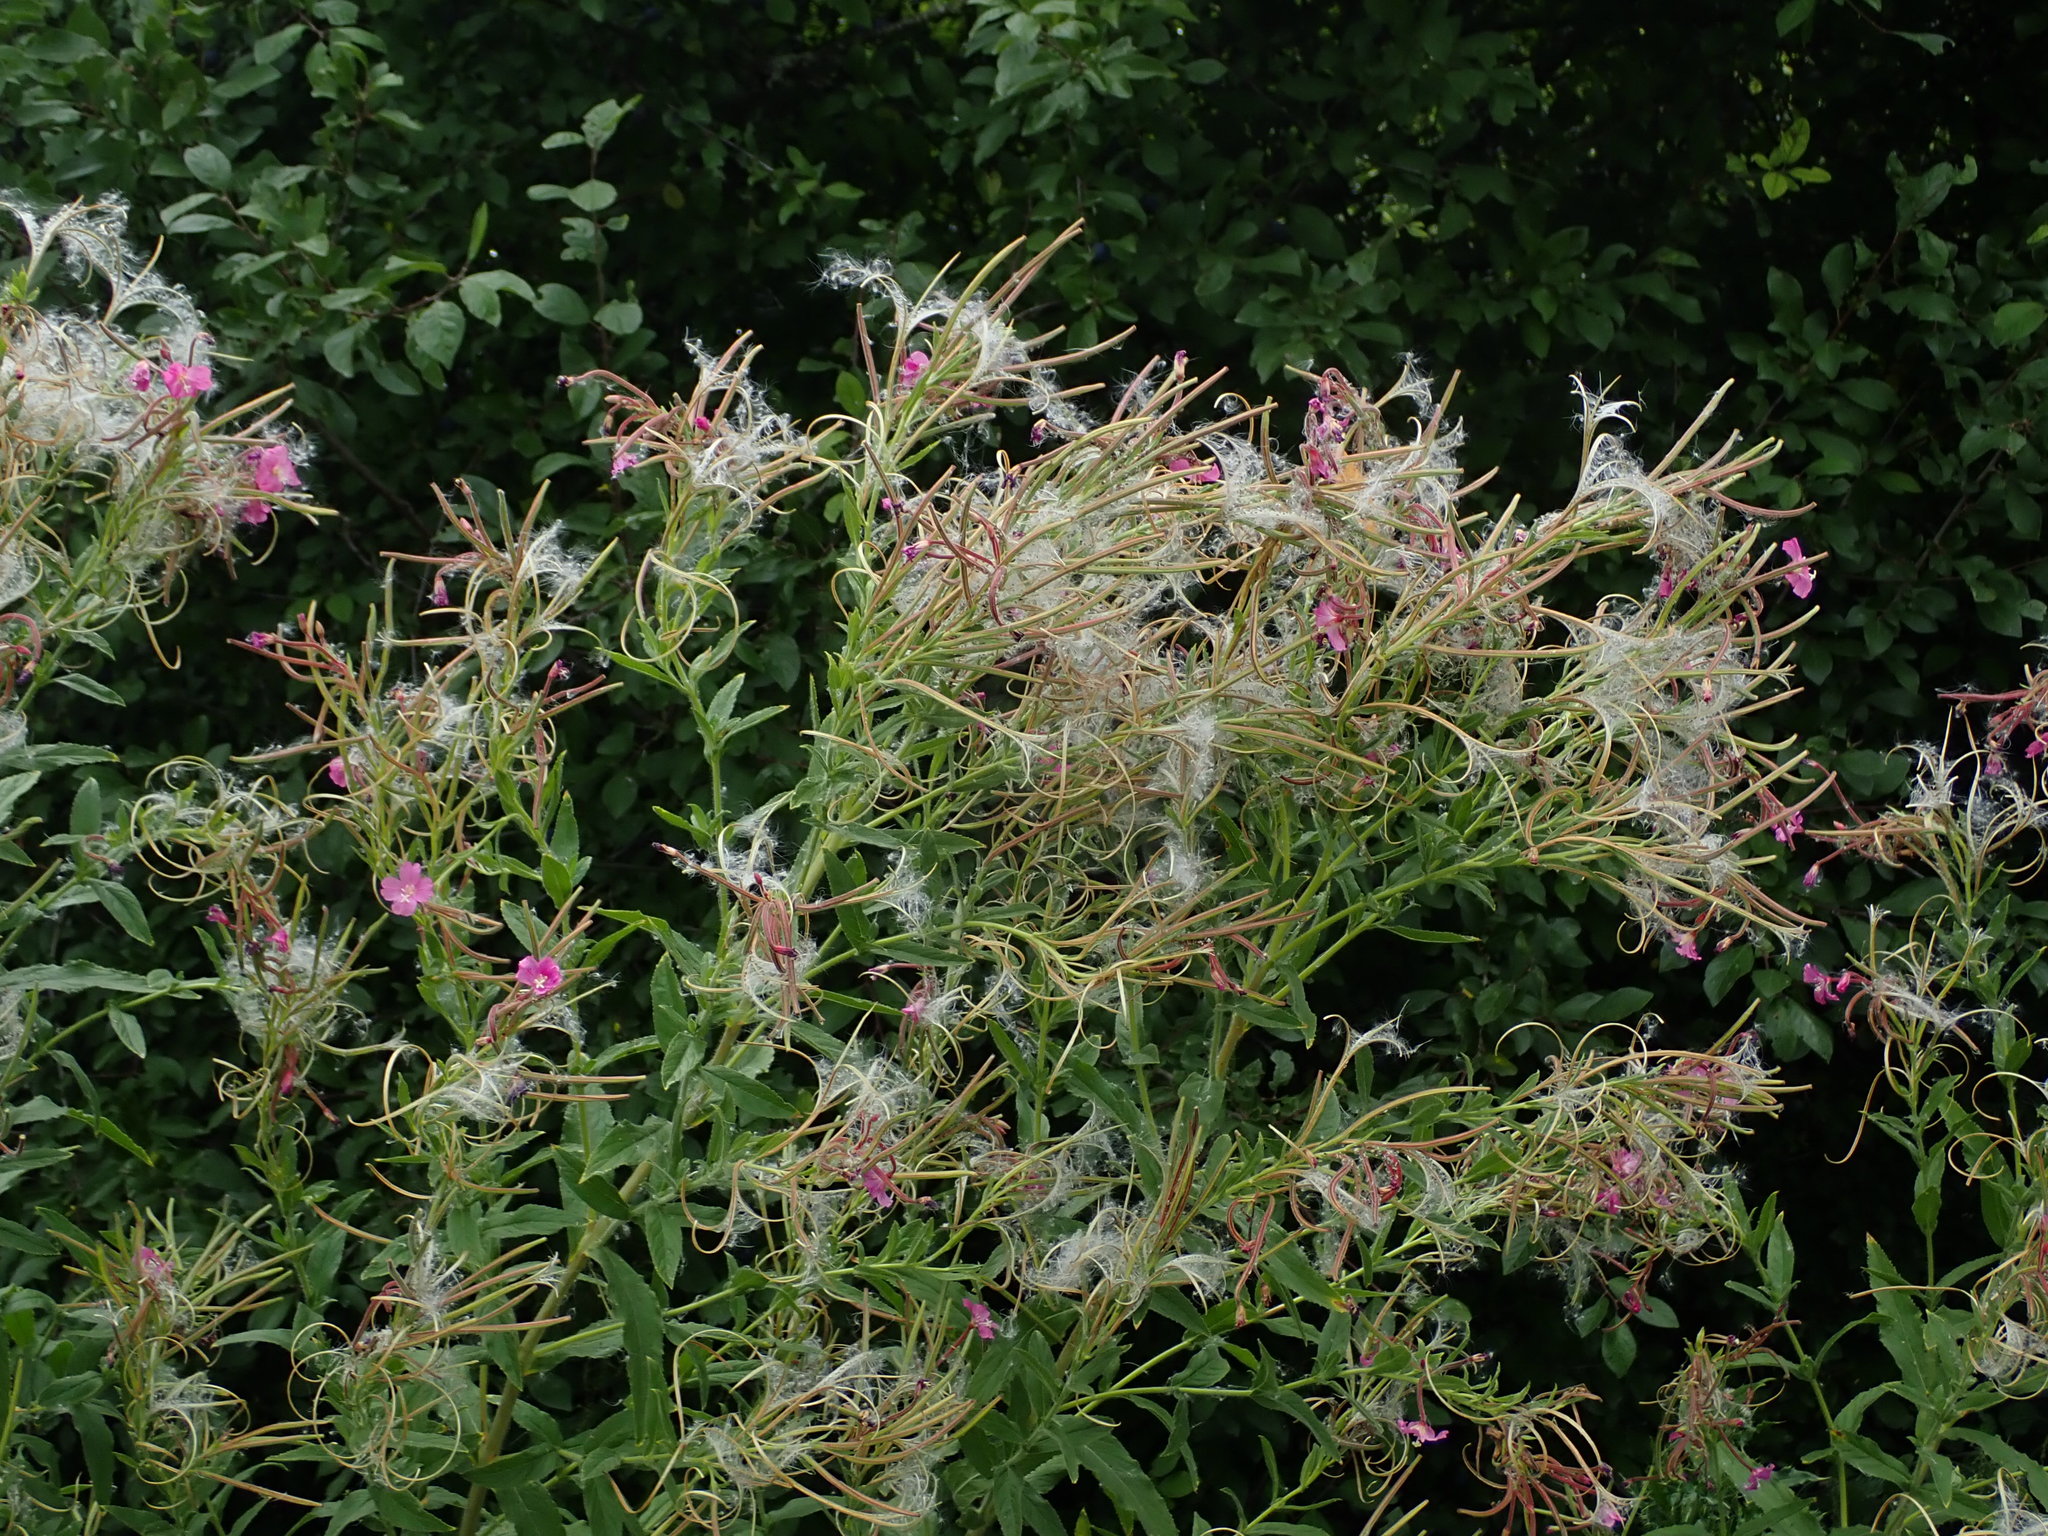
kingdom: Plantae
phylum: Tracheophyta
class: Magnoliopsida
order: Myrtales
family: Onagraceae
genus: Epilobium
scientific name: Epilobium hirsutum
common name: Great willowherb
